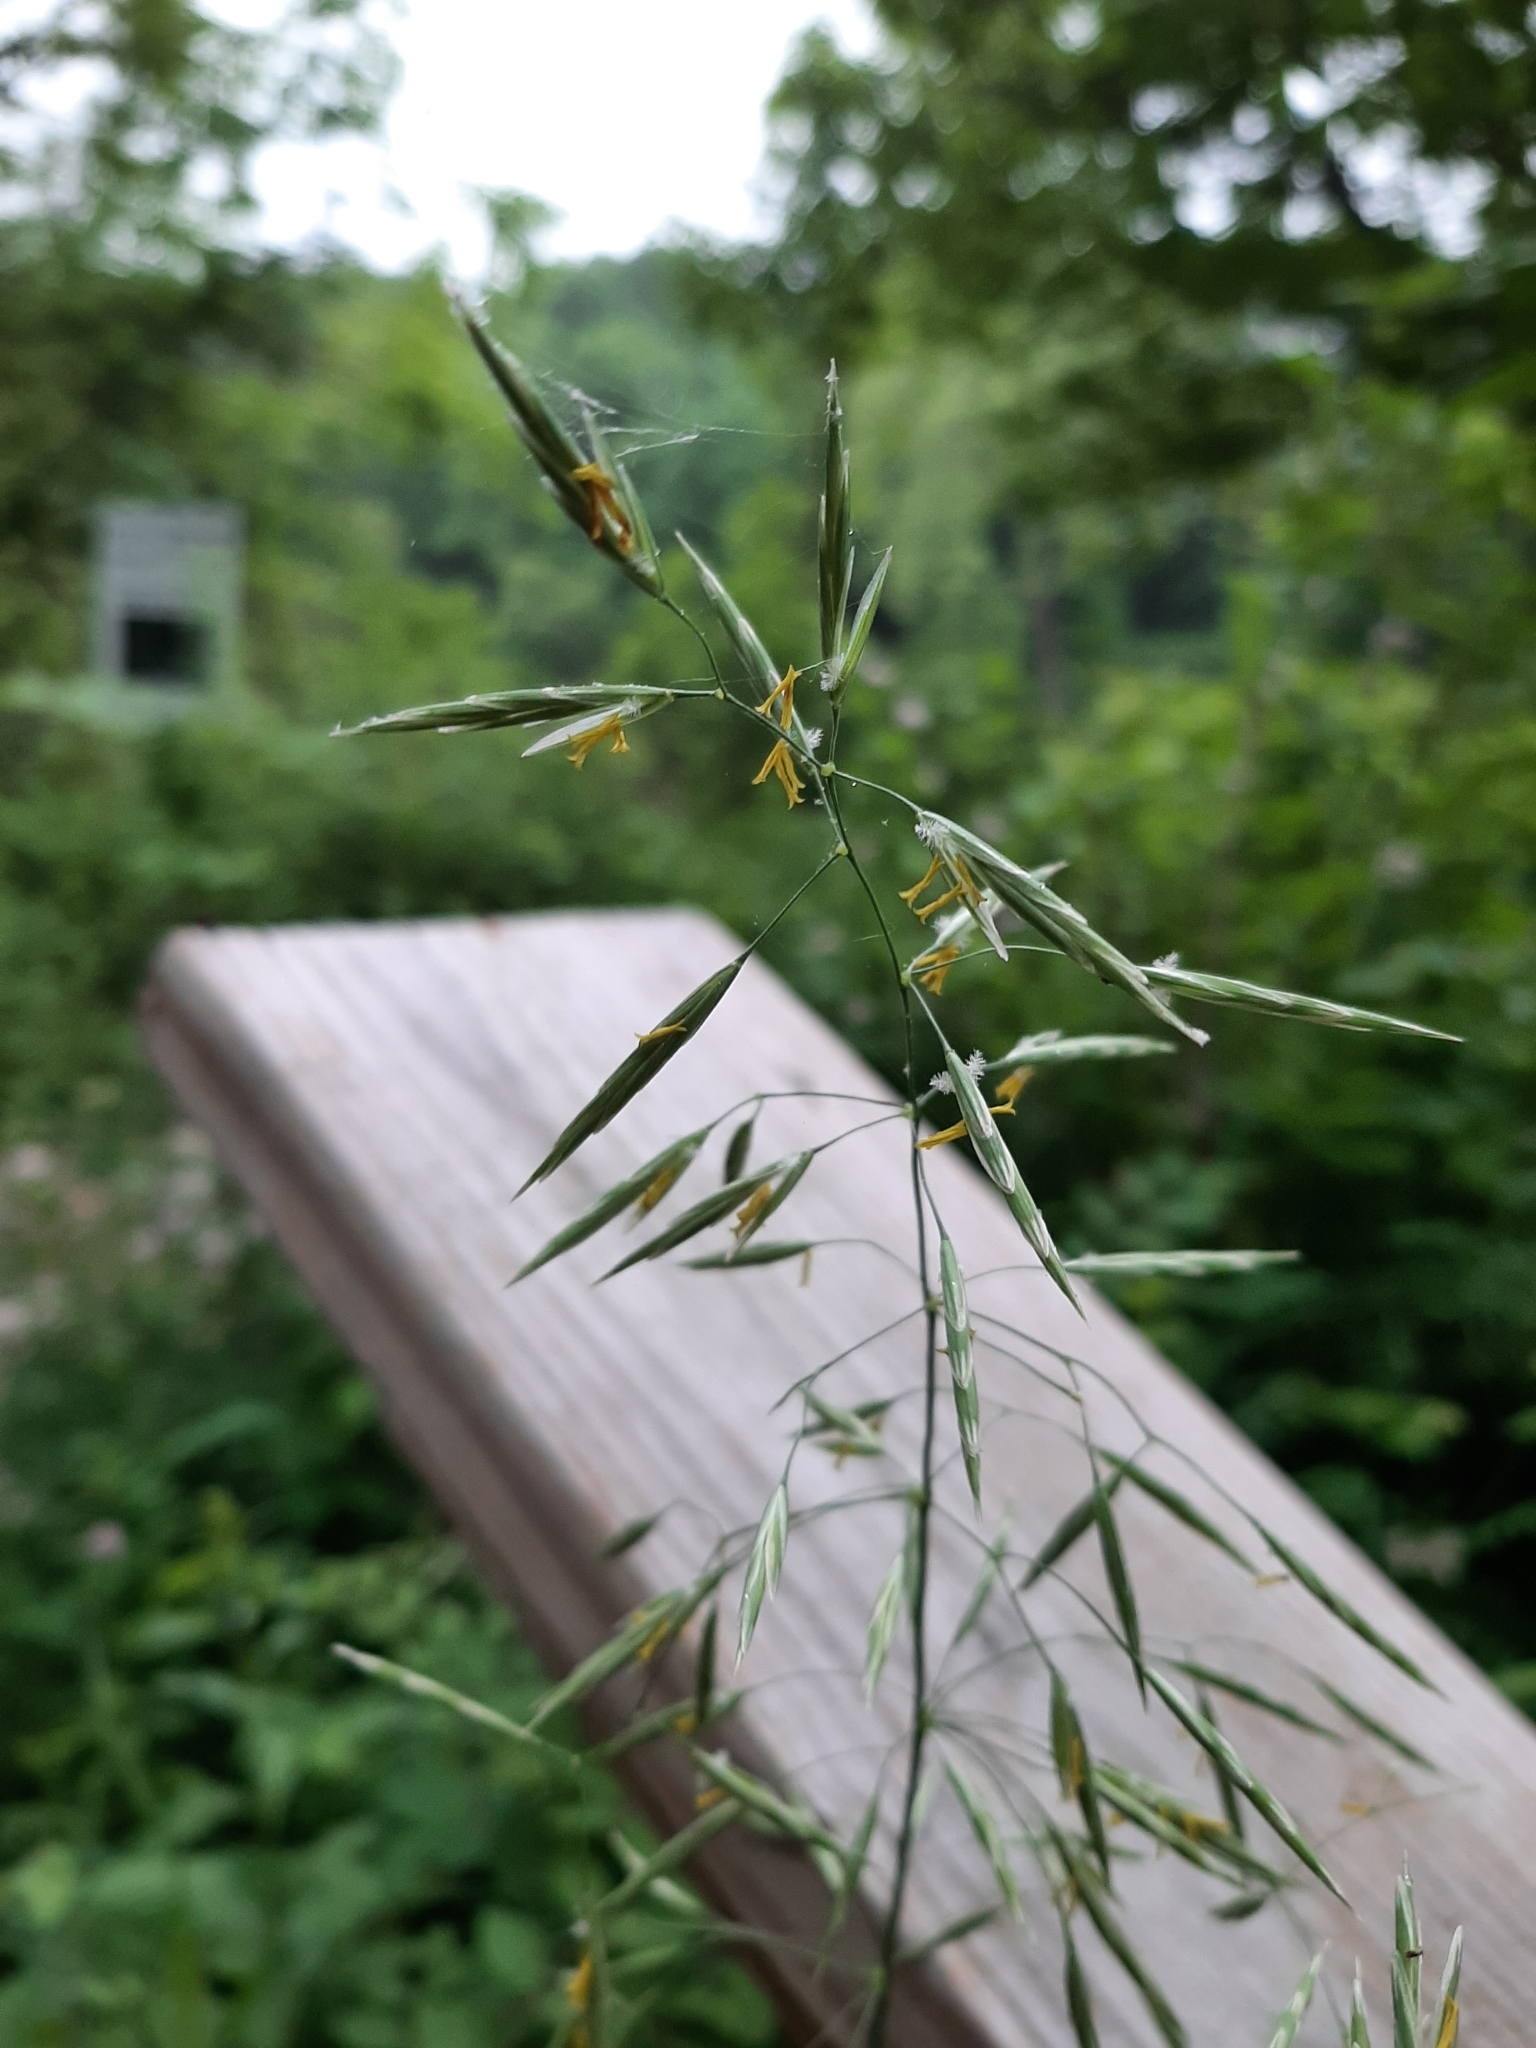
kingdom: Plantae
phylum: Tracheophyta
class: Liliopsida
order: Poales
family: Poaceae
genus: Bromus
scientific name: Bromus inermis
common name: Smooth brome
